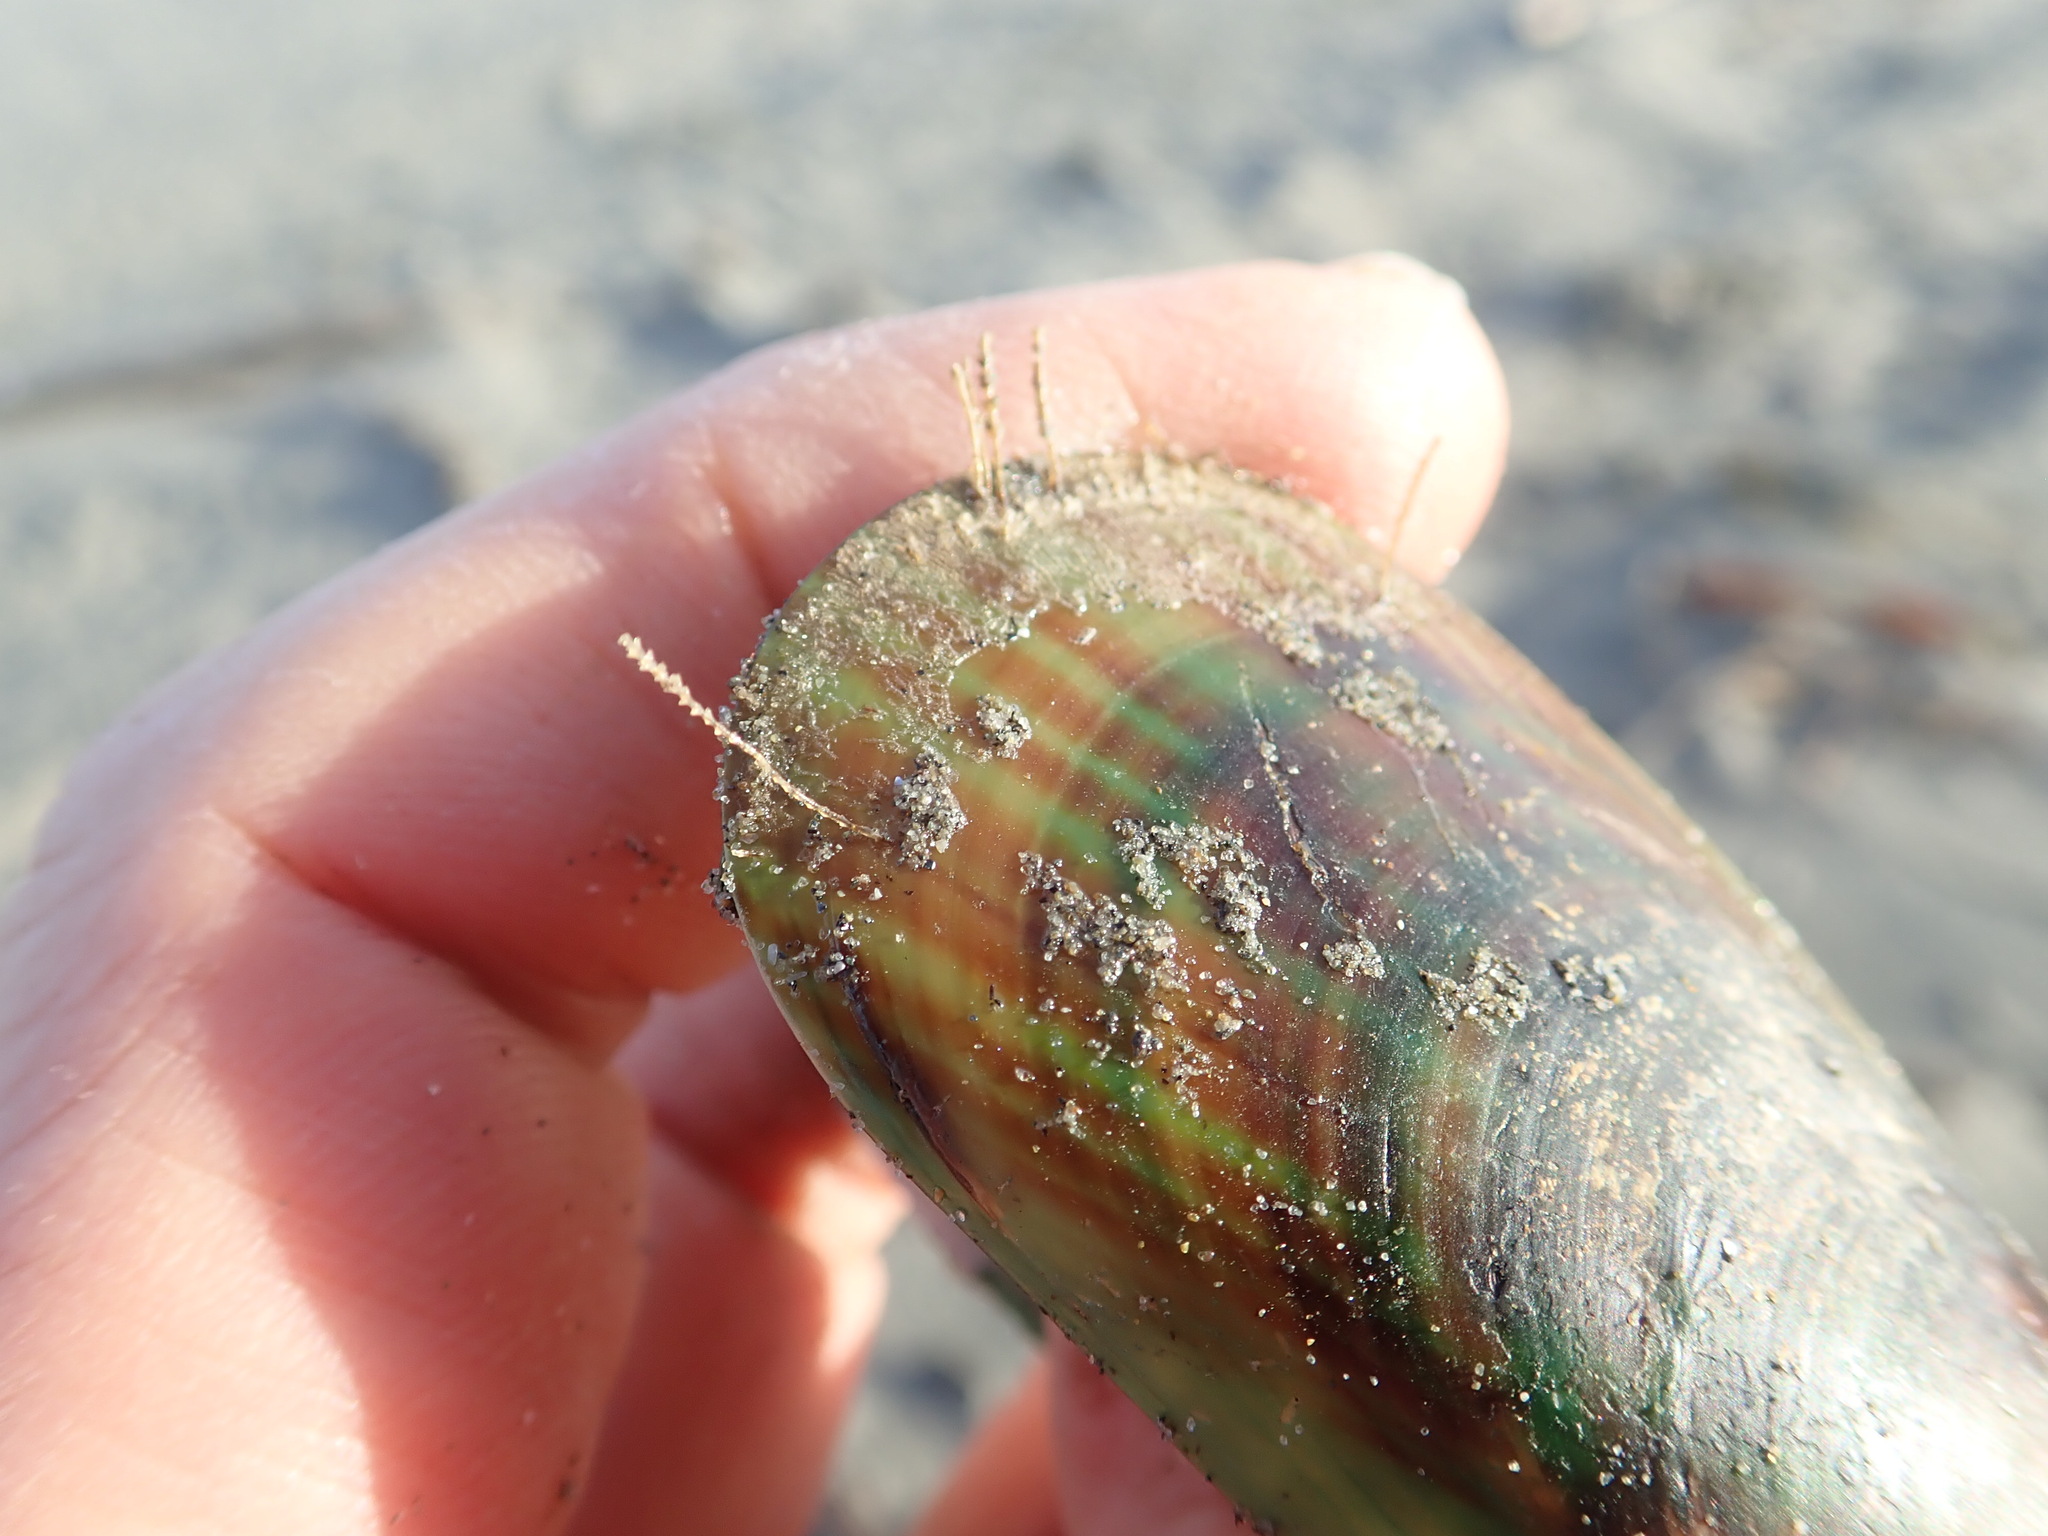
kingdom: Animalia
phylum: Mollusca
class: Bivalvia
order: Mytilida
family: Mytilidae
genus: Perna
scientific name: Perna canaliculus
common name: New zealand greenshelltm
